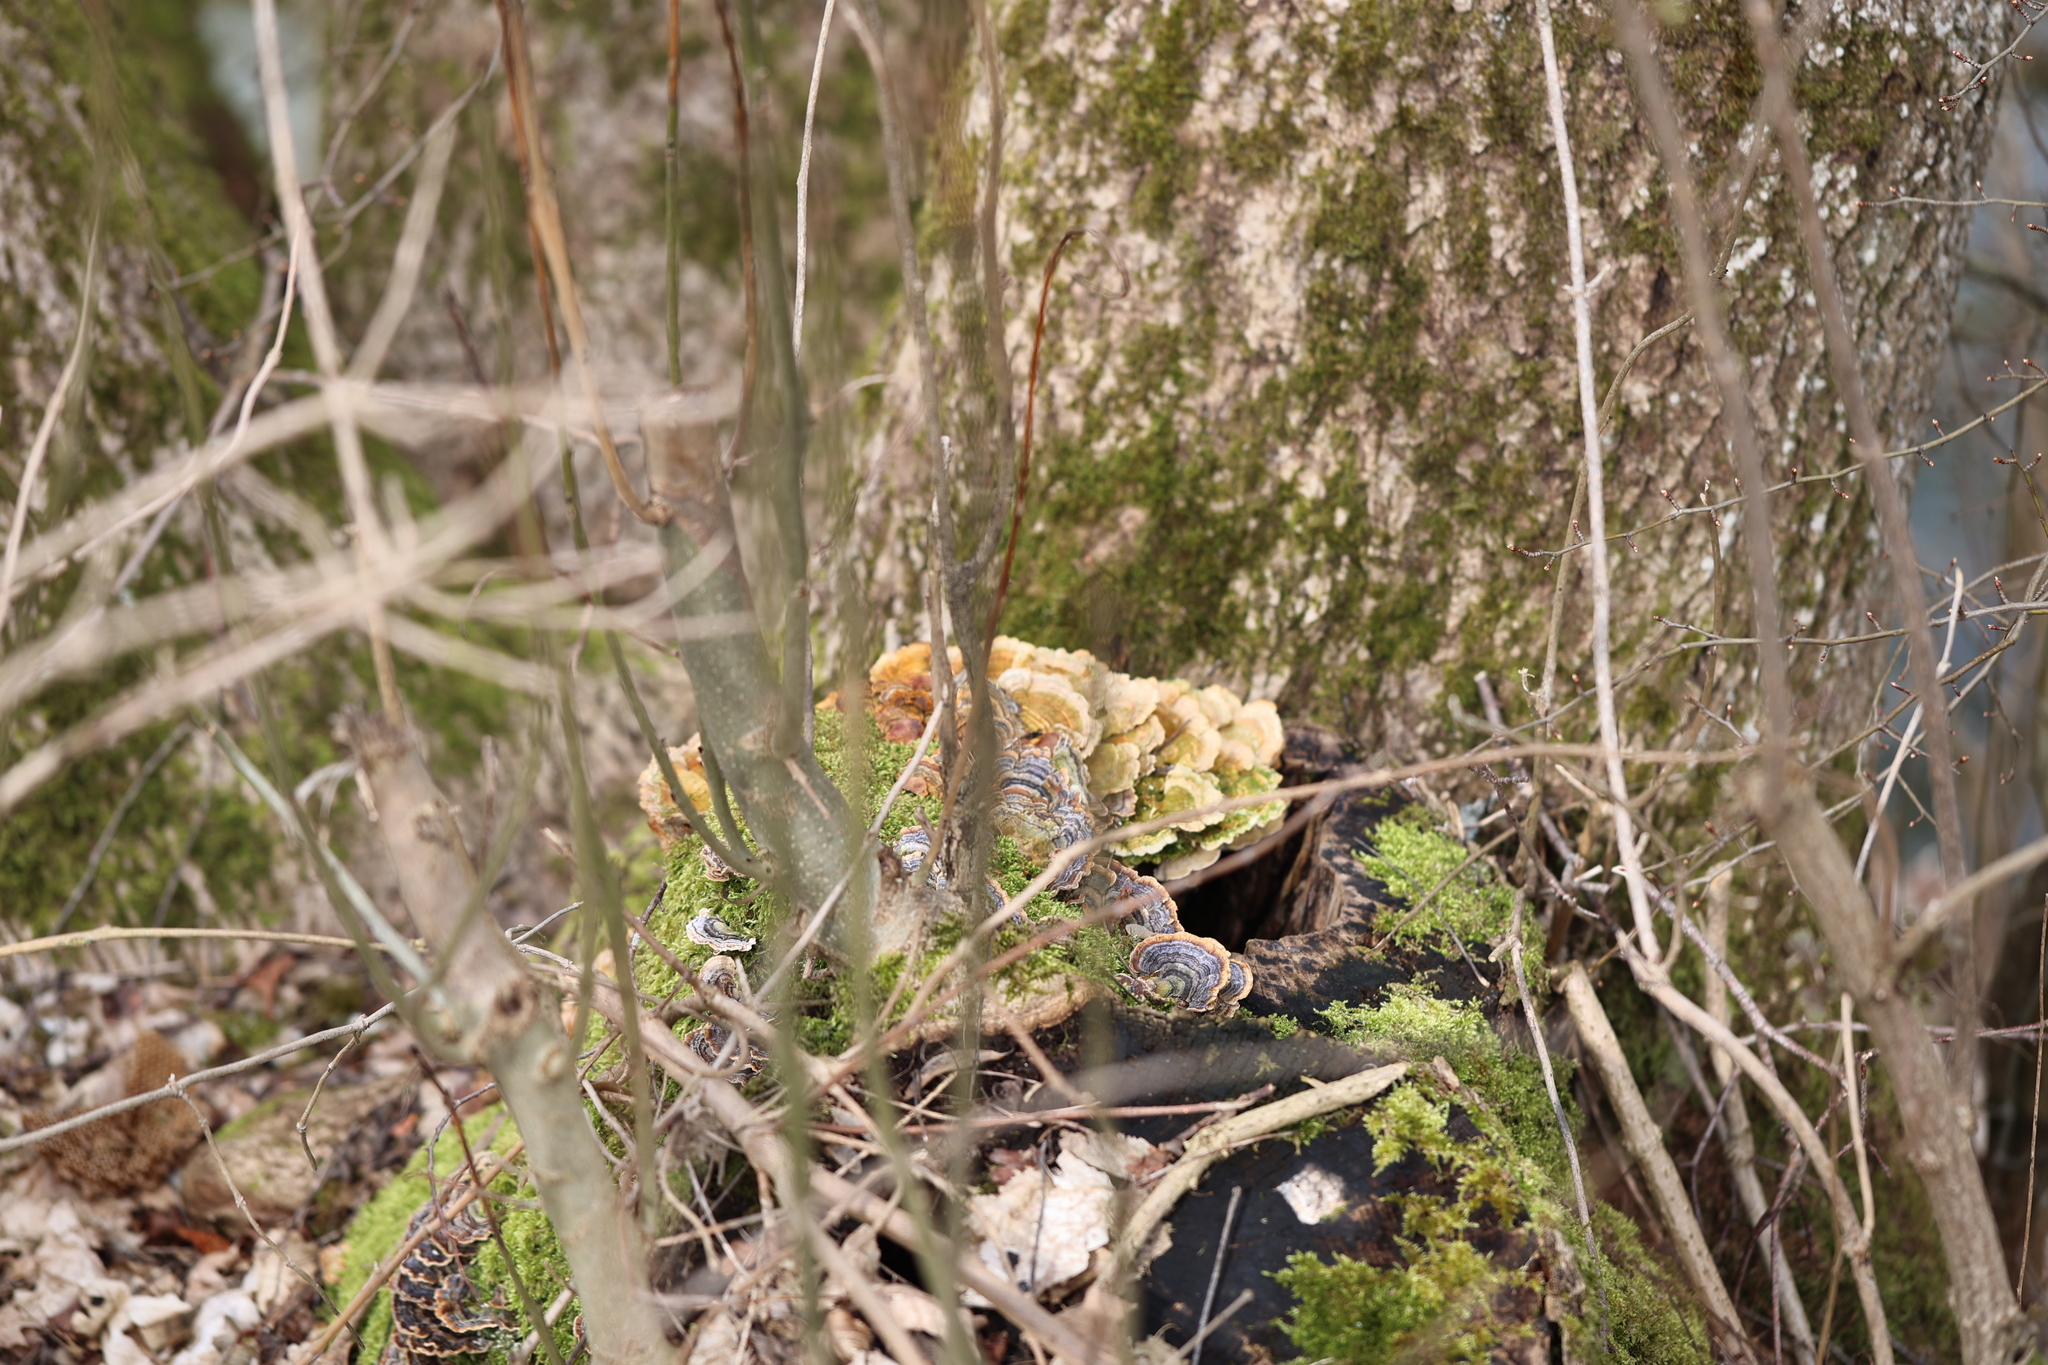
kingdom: Fungi
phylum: Basidiomycota
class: Agaricomycetes
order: Polyporales
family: Polyporaceae
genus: Trametes
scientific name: Trametes versicolor
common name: Turkeytail
